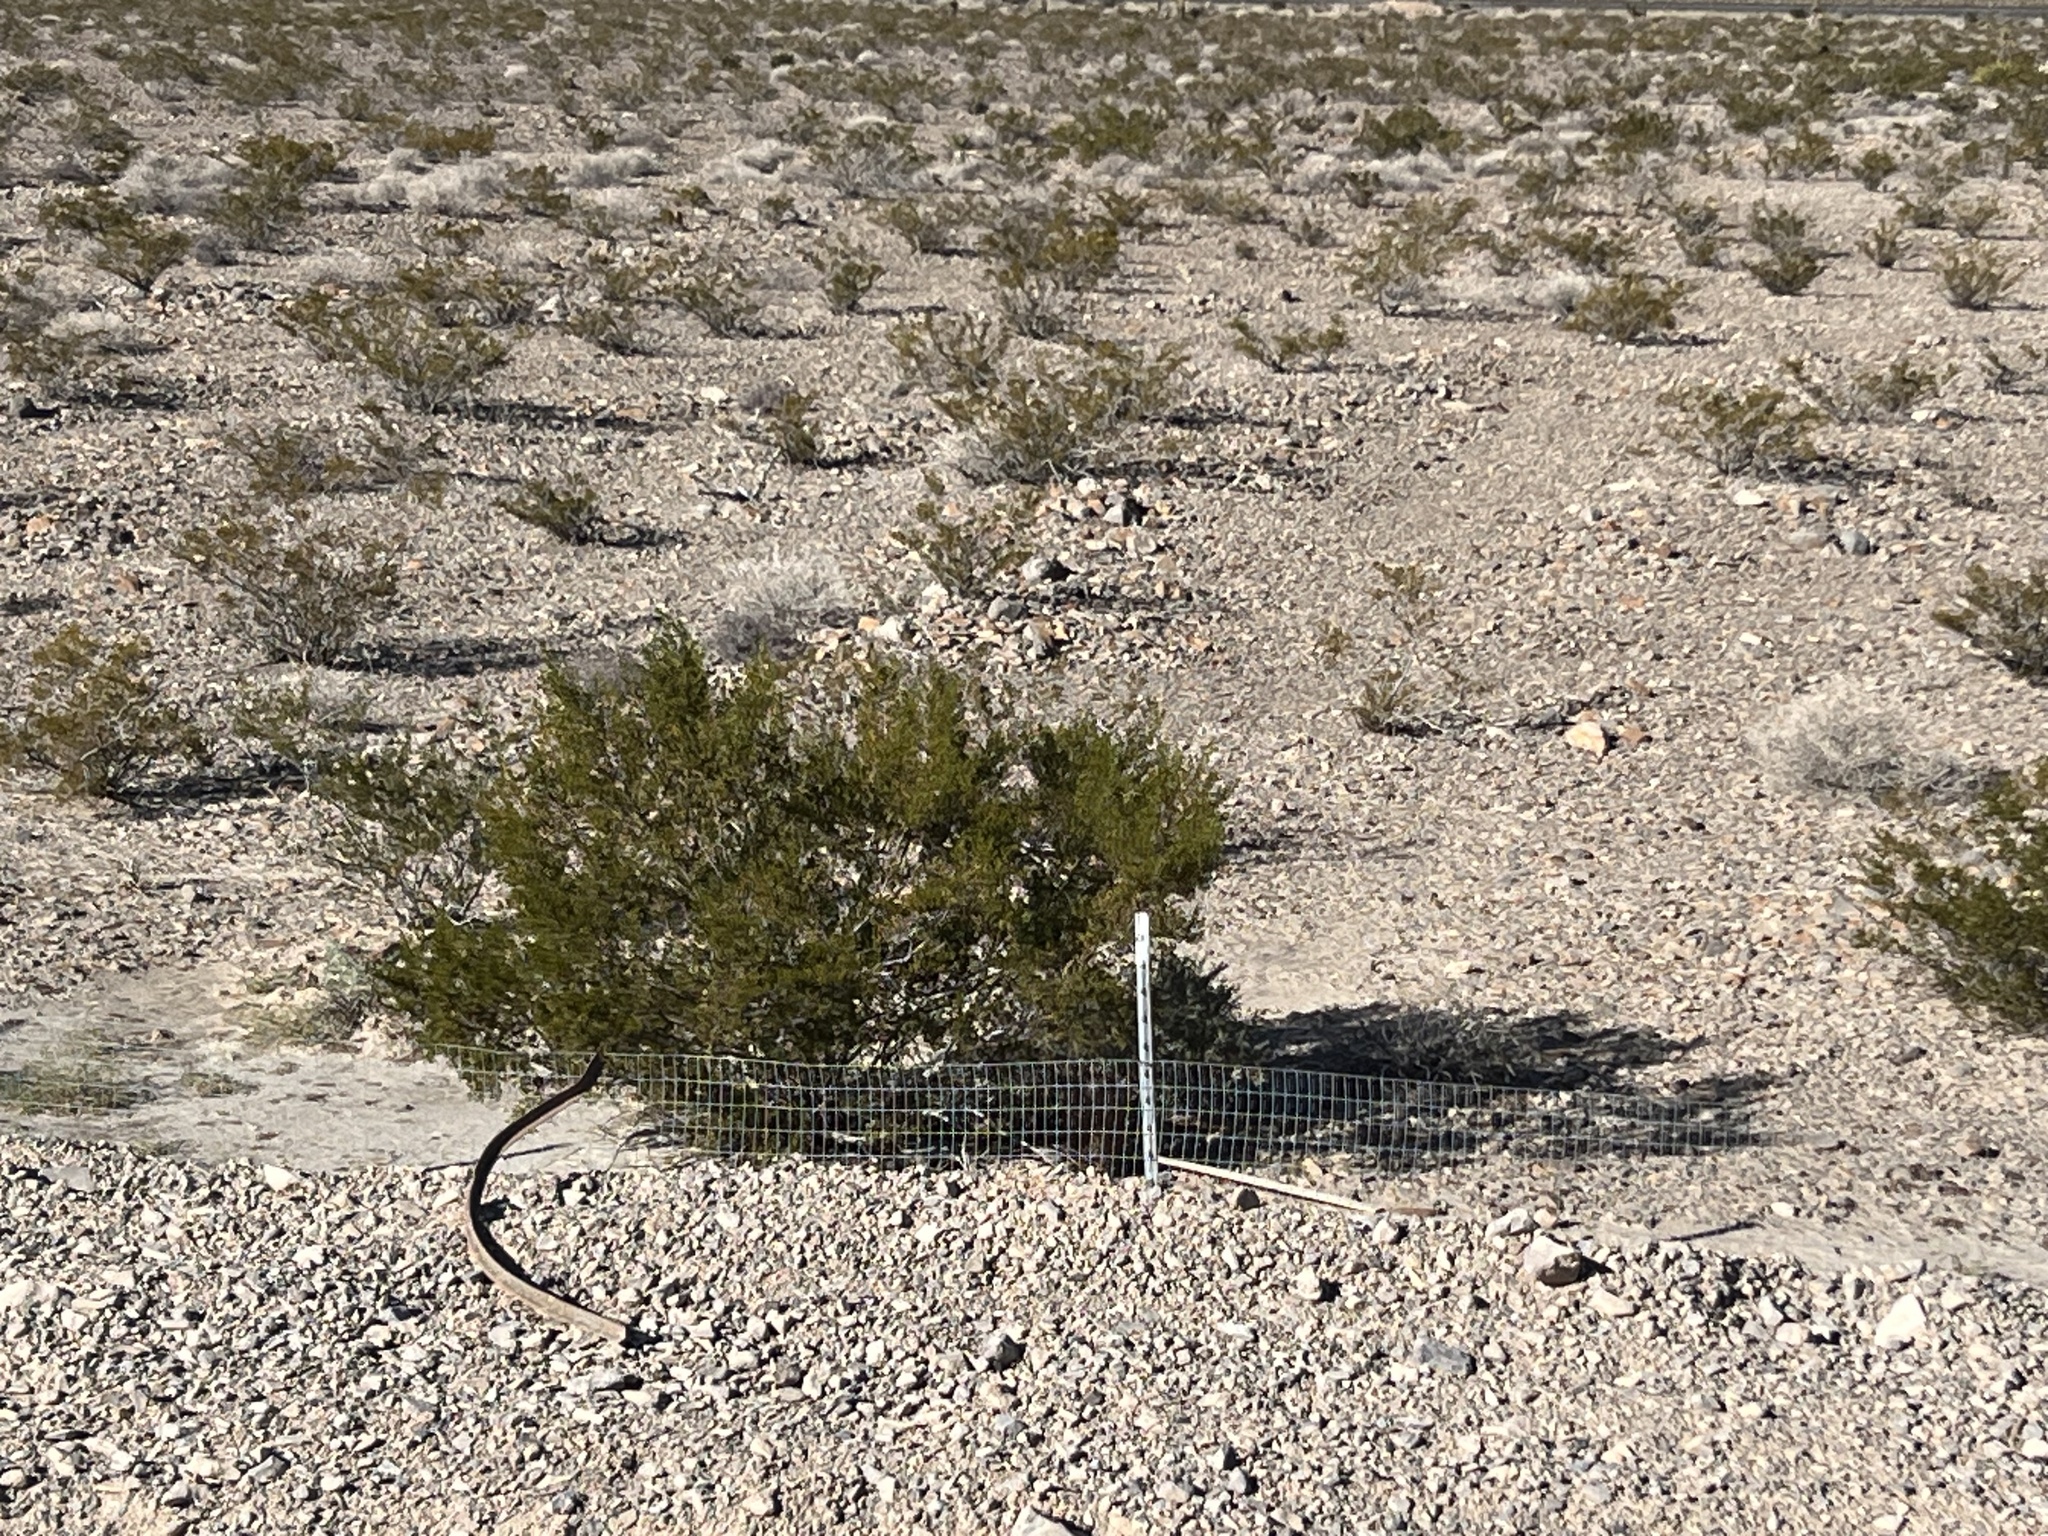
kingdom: Plantae
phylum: Tracheophyta
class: Magnoliopsida
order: Zygophyllales
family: Zygophyllaceae
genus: Larrea
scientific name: Larrea tridentata
